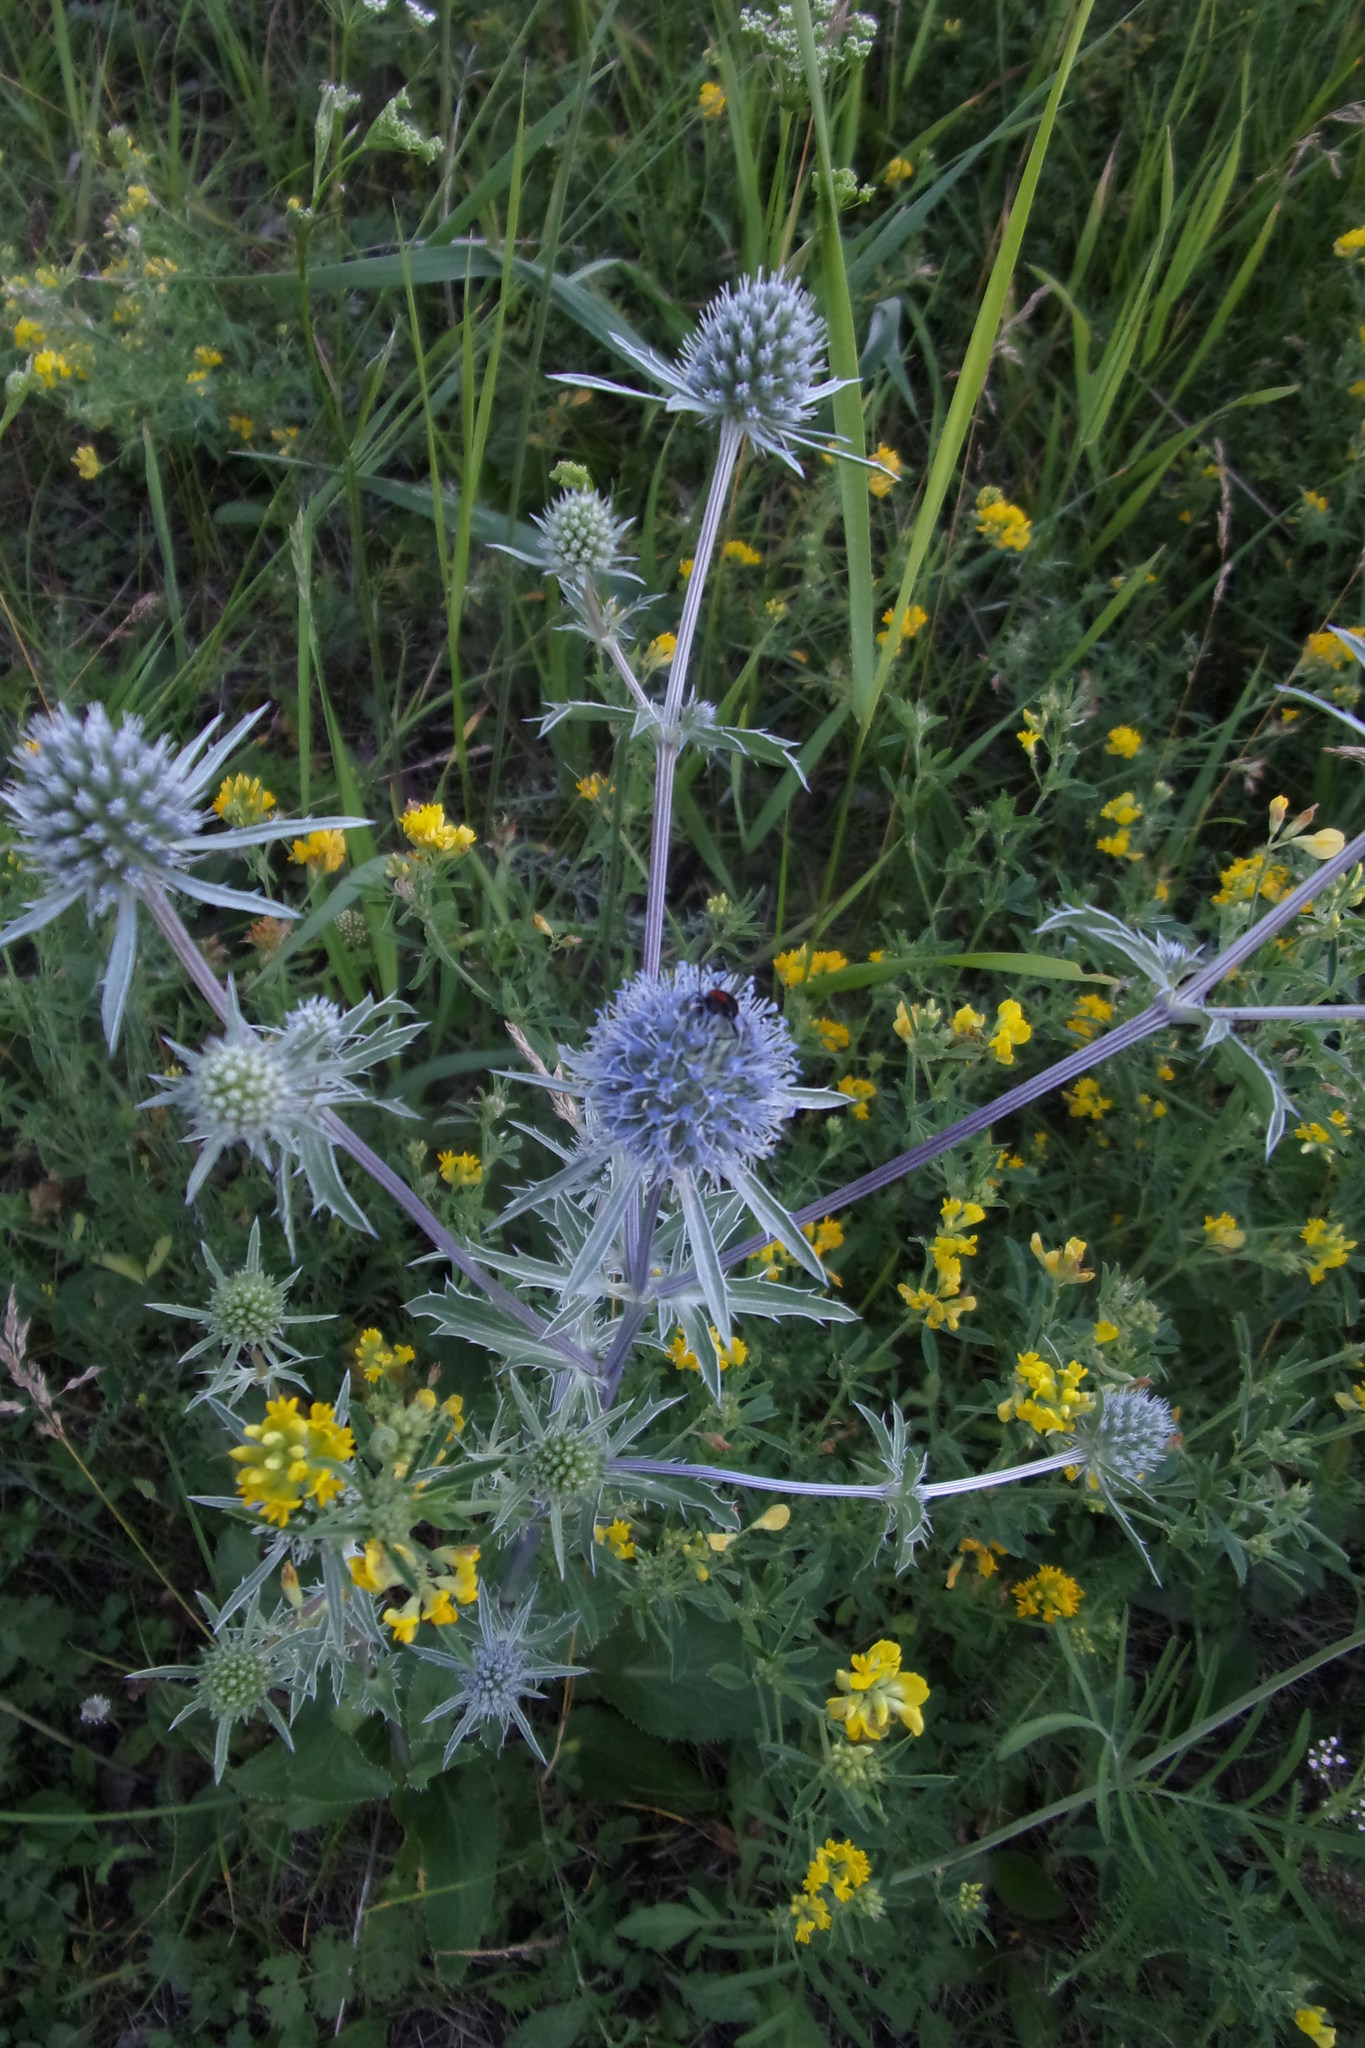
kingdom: Plantae
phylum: Tracheophyta
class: Magnoliopsida
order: Apiales
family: Apiaceae
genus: Eryngium
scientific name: Eryngium planum
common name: Blue eryngo
